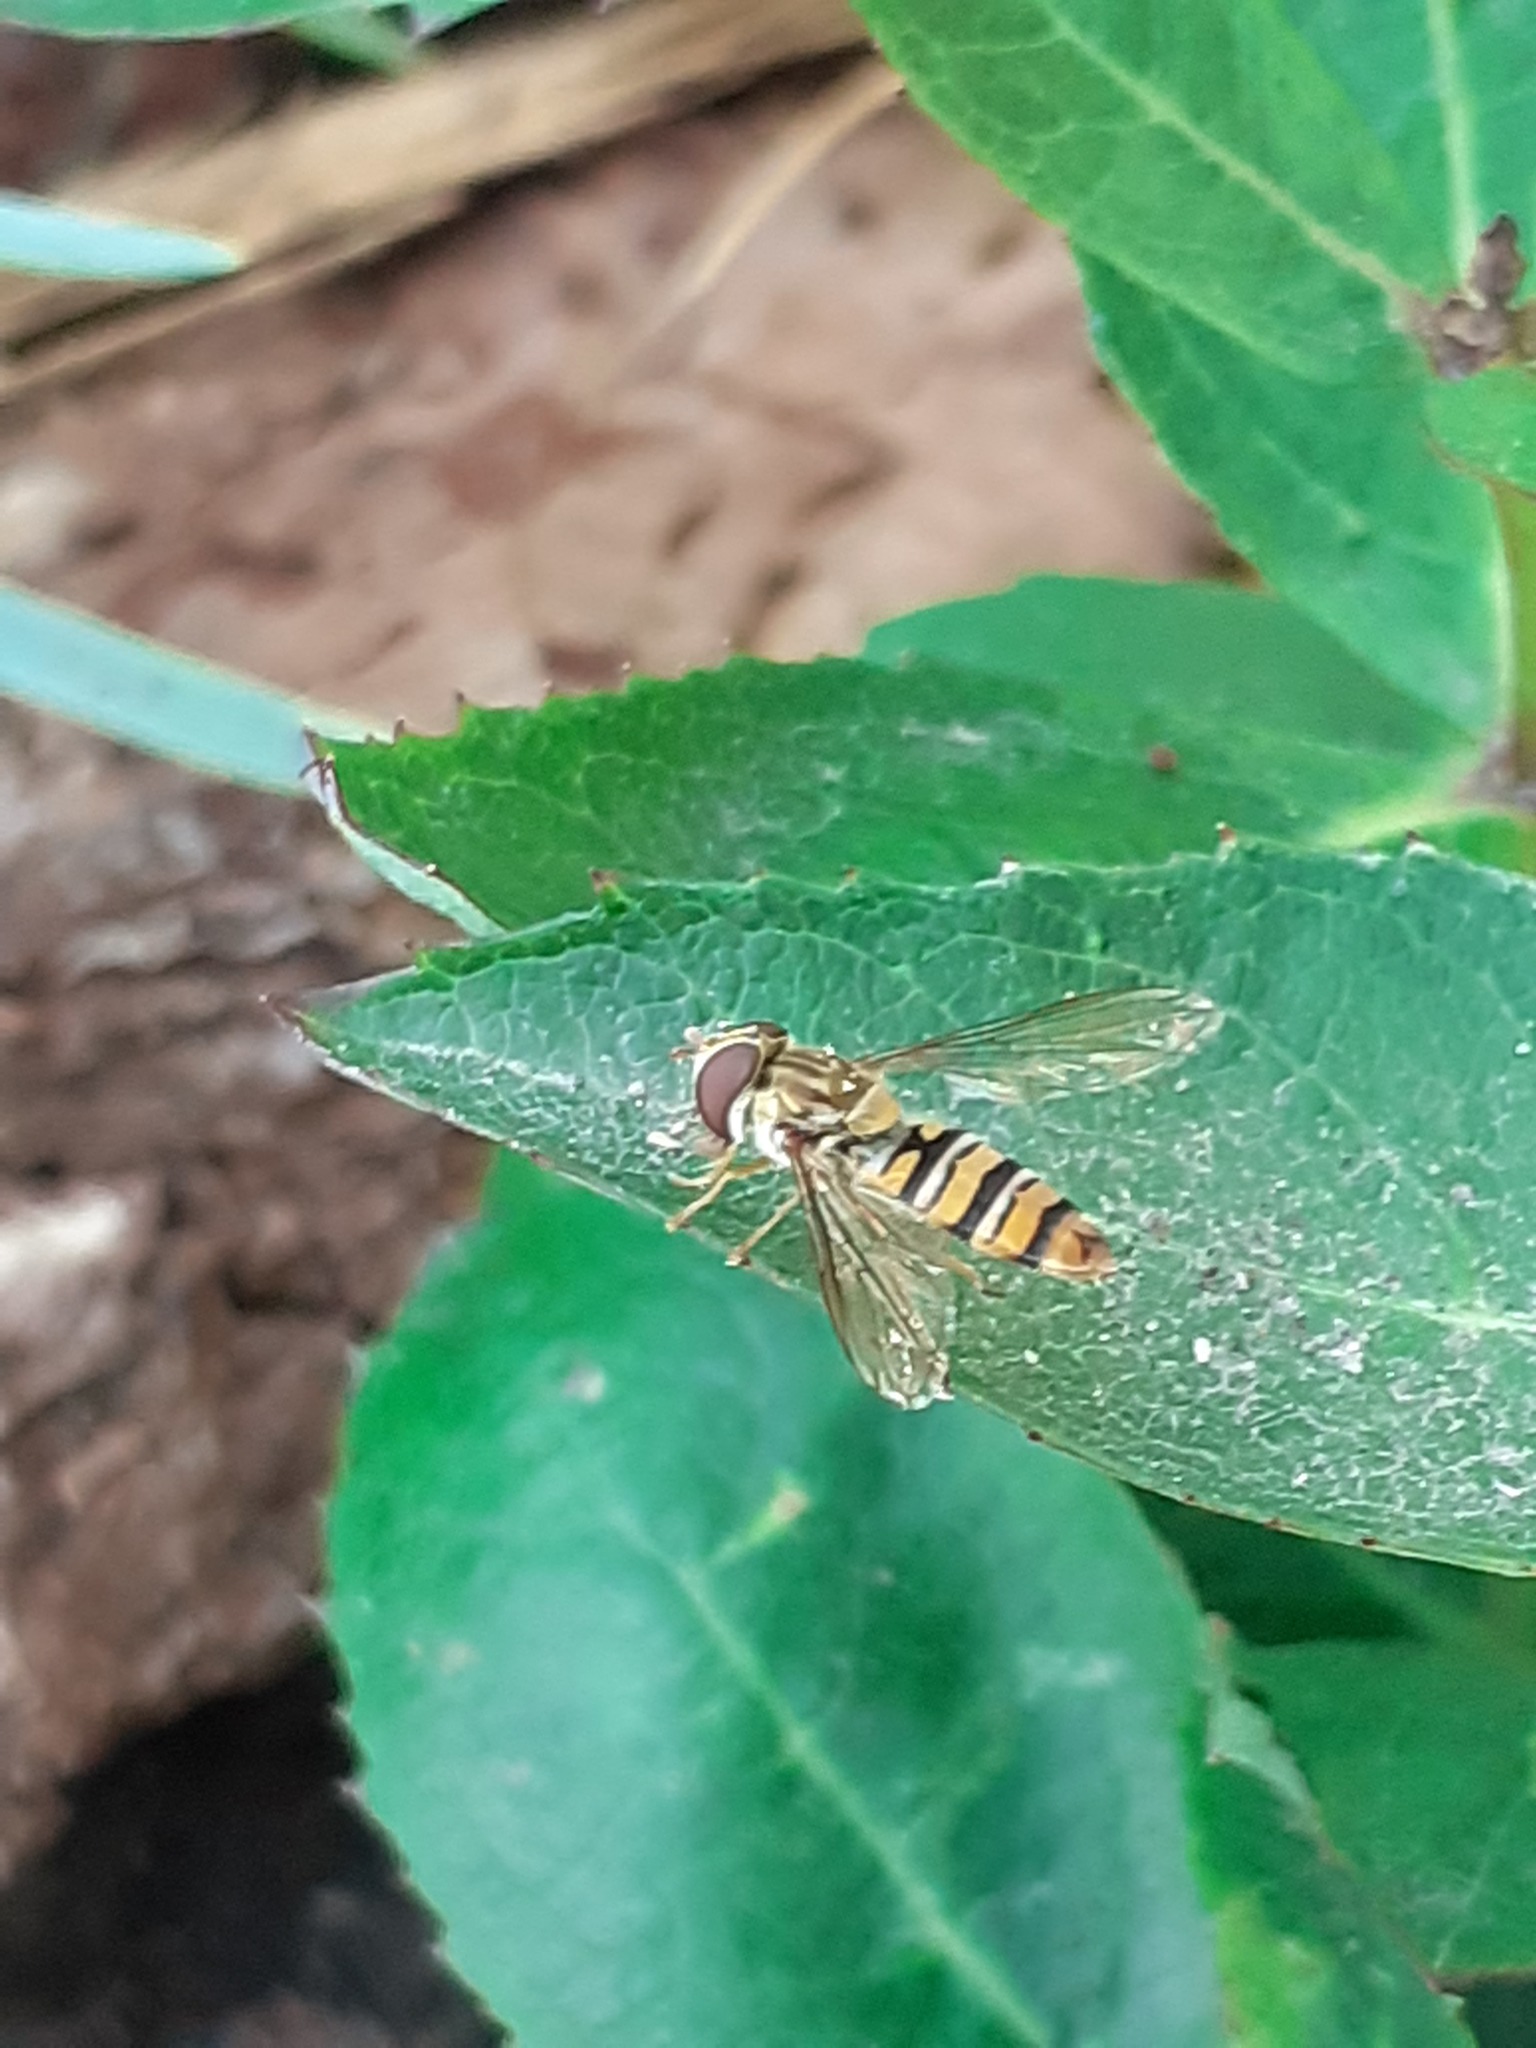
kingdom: Animalia
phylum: Arthropoda
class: Insecta
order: Diptera
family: Syrphidae
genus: Episyrphus
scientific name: Episyrphus balteatus
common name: Marmalade hoverfly
